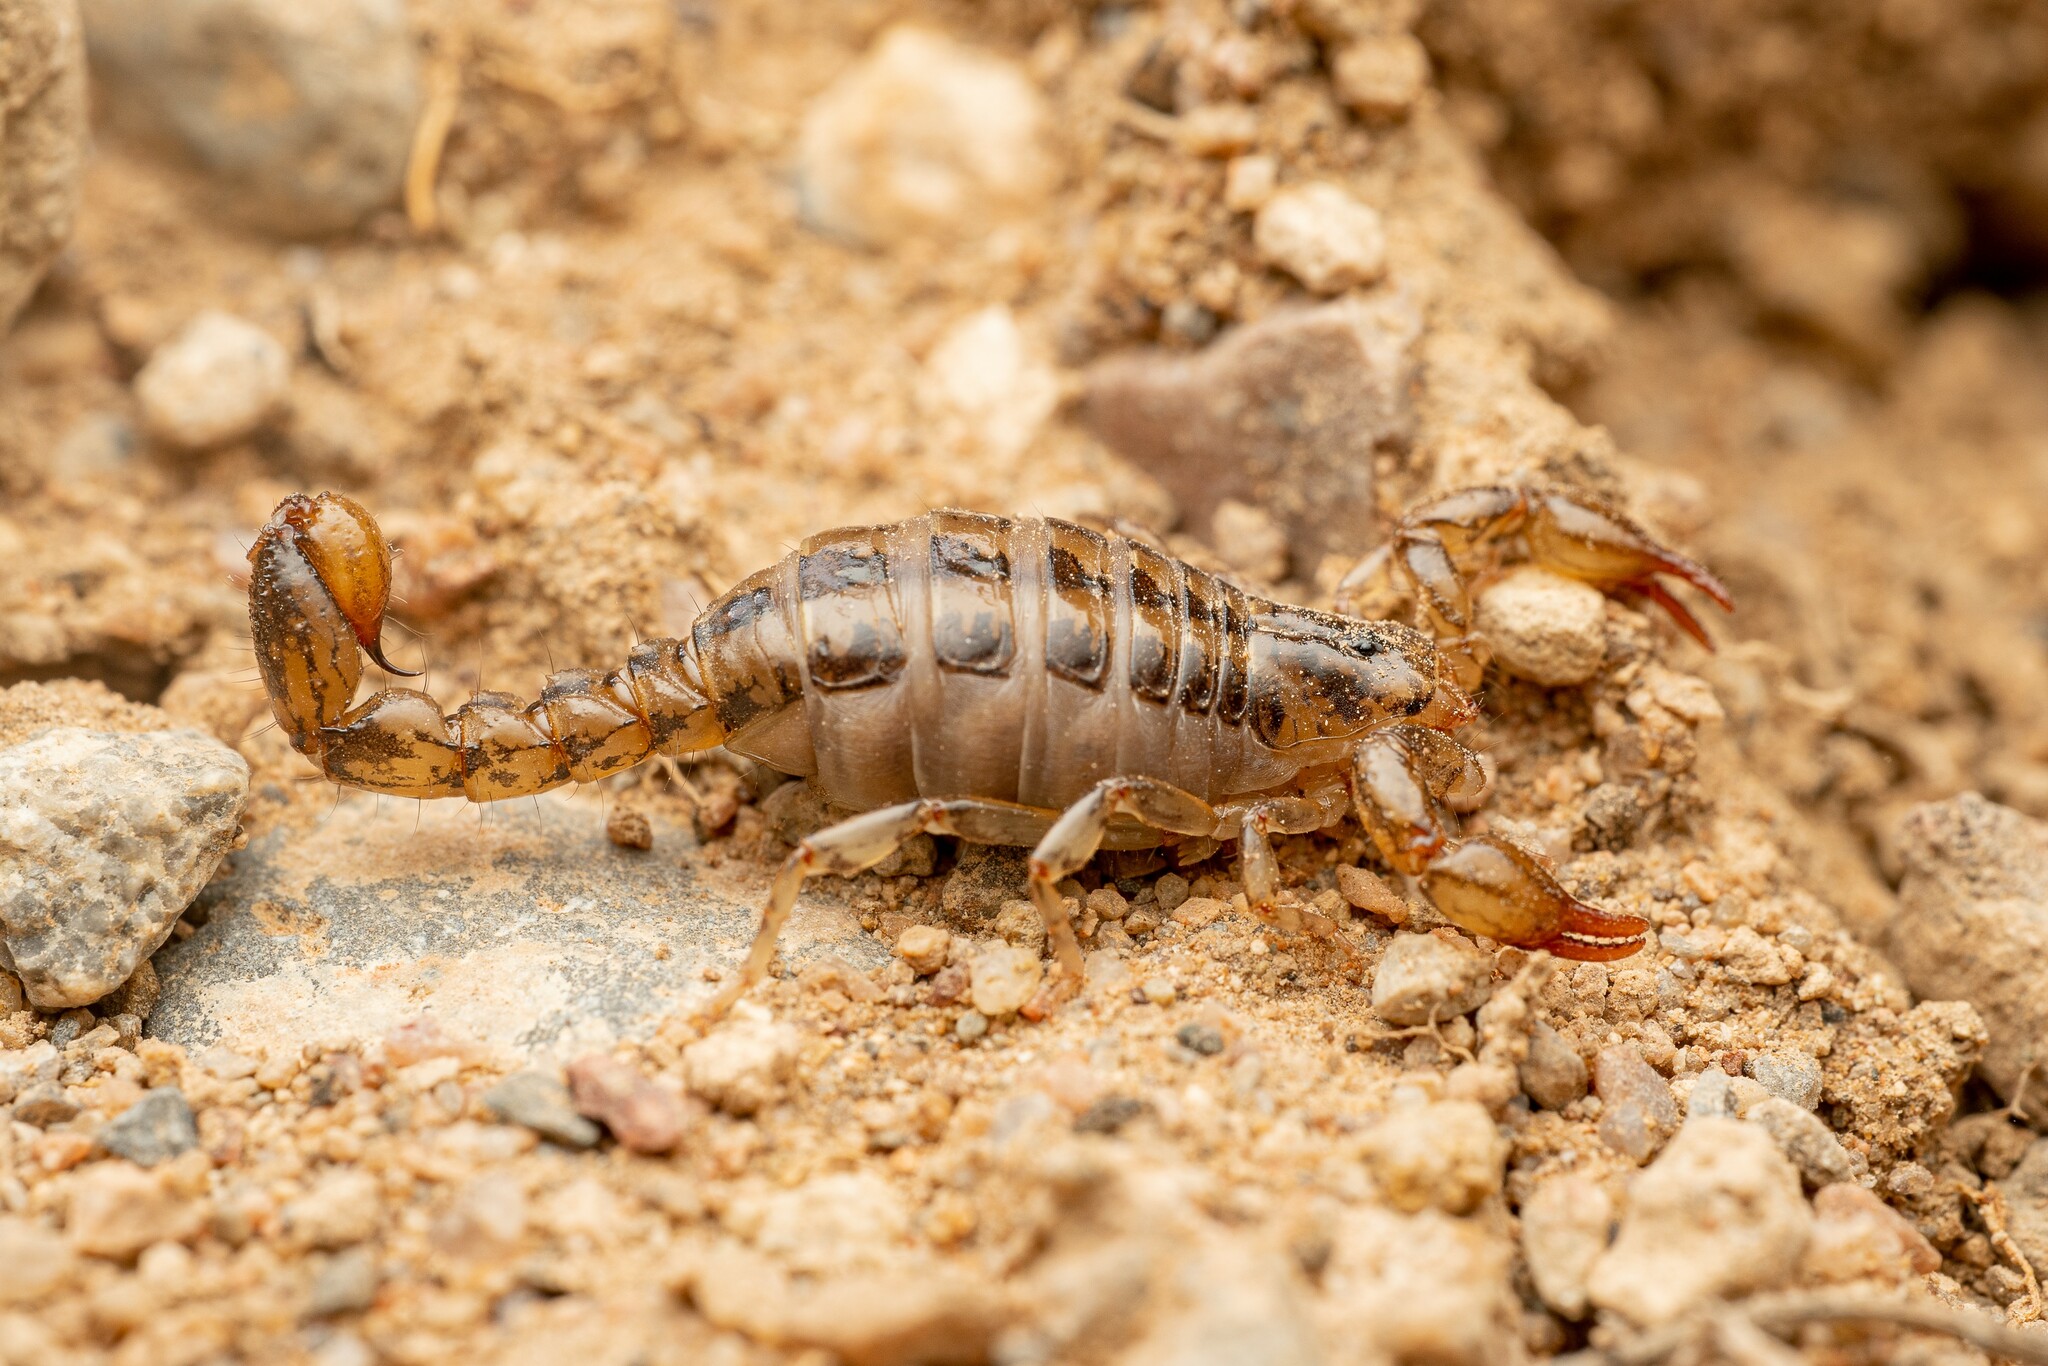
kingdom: Animalia
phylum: Arthropoda
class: Arachnida
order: Scorpiones
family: Superstitioniidae
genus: Superstitionia
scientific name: Superstitionia donensis
